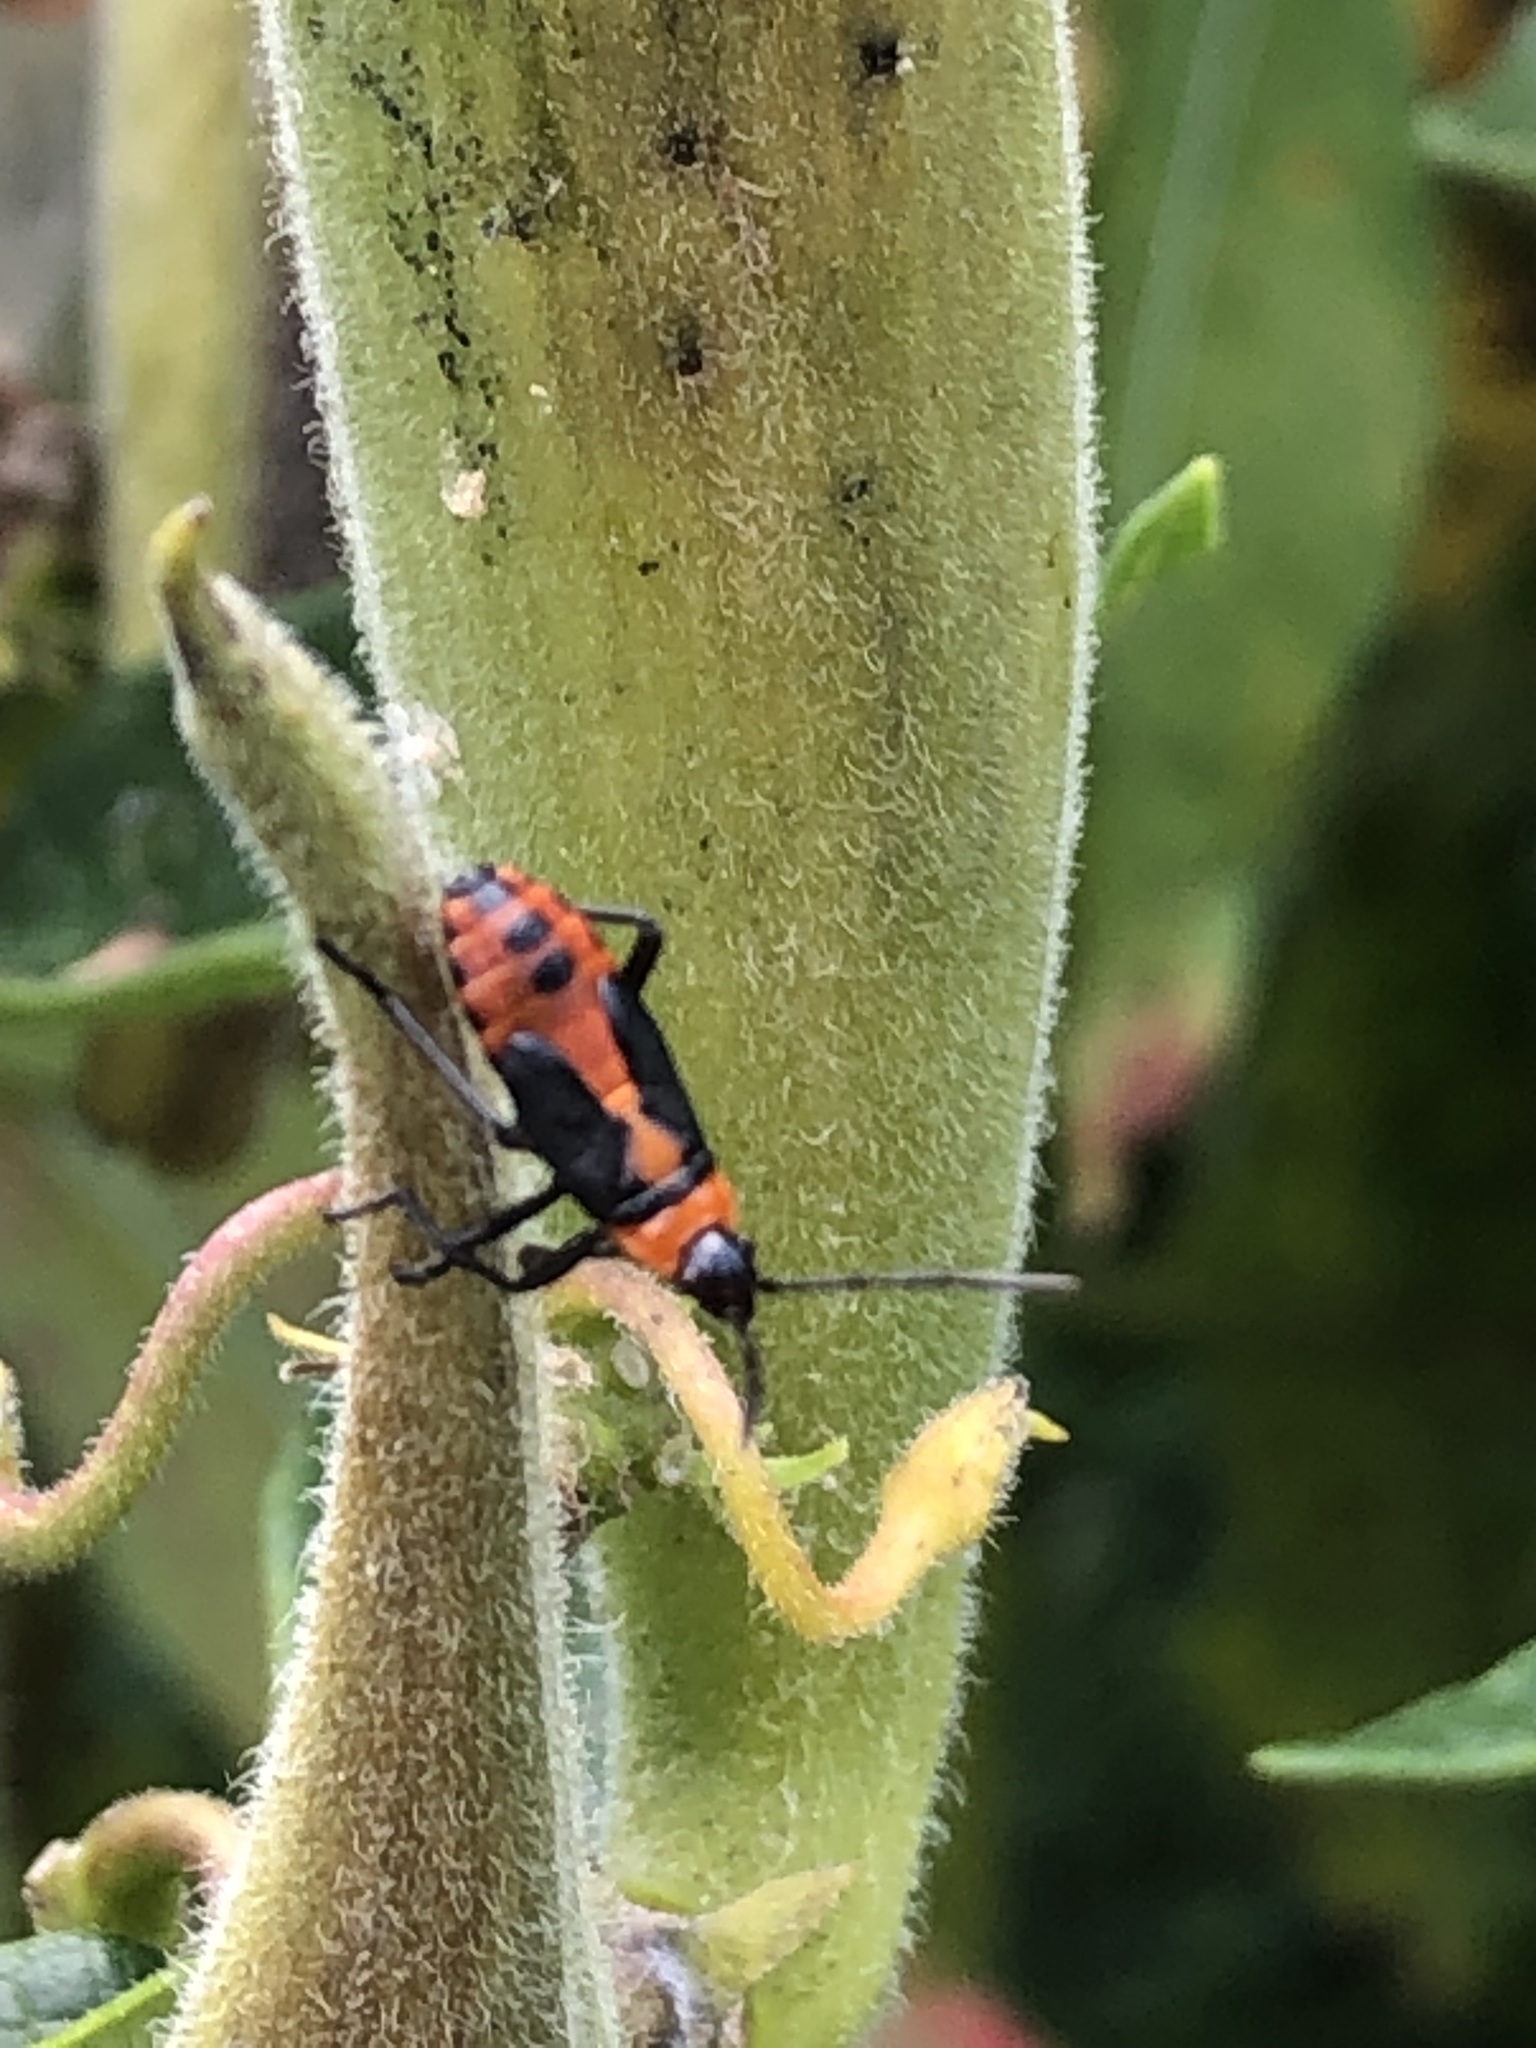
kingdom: Animalia
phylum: Arthropoda
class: Insecta
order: Hemiptera
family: Lygaeidae
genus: Oncopeltus
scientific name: Oncopeltus fasciatus
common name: Large milkweed bug
